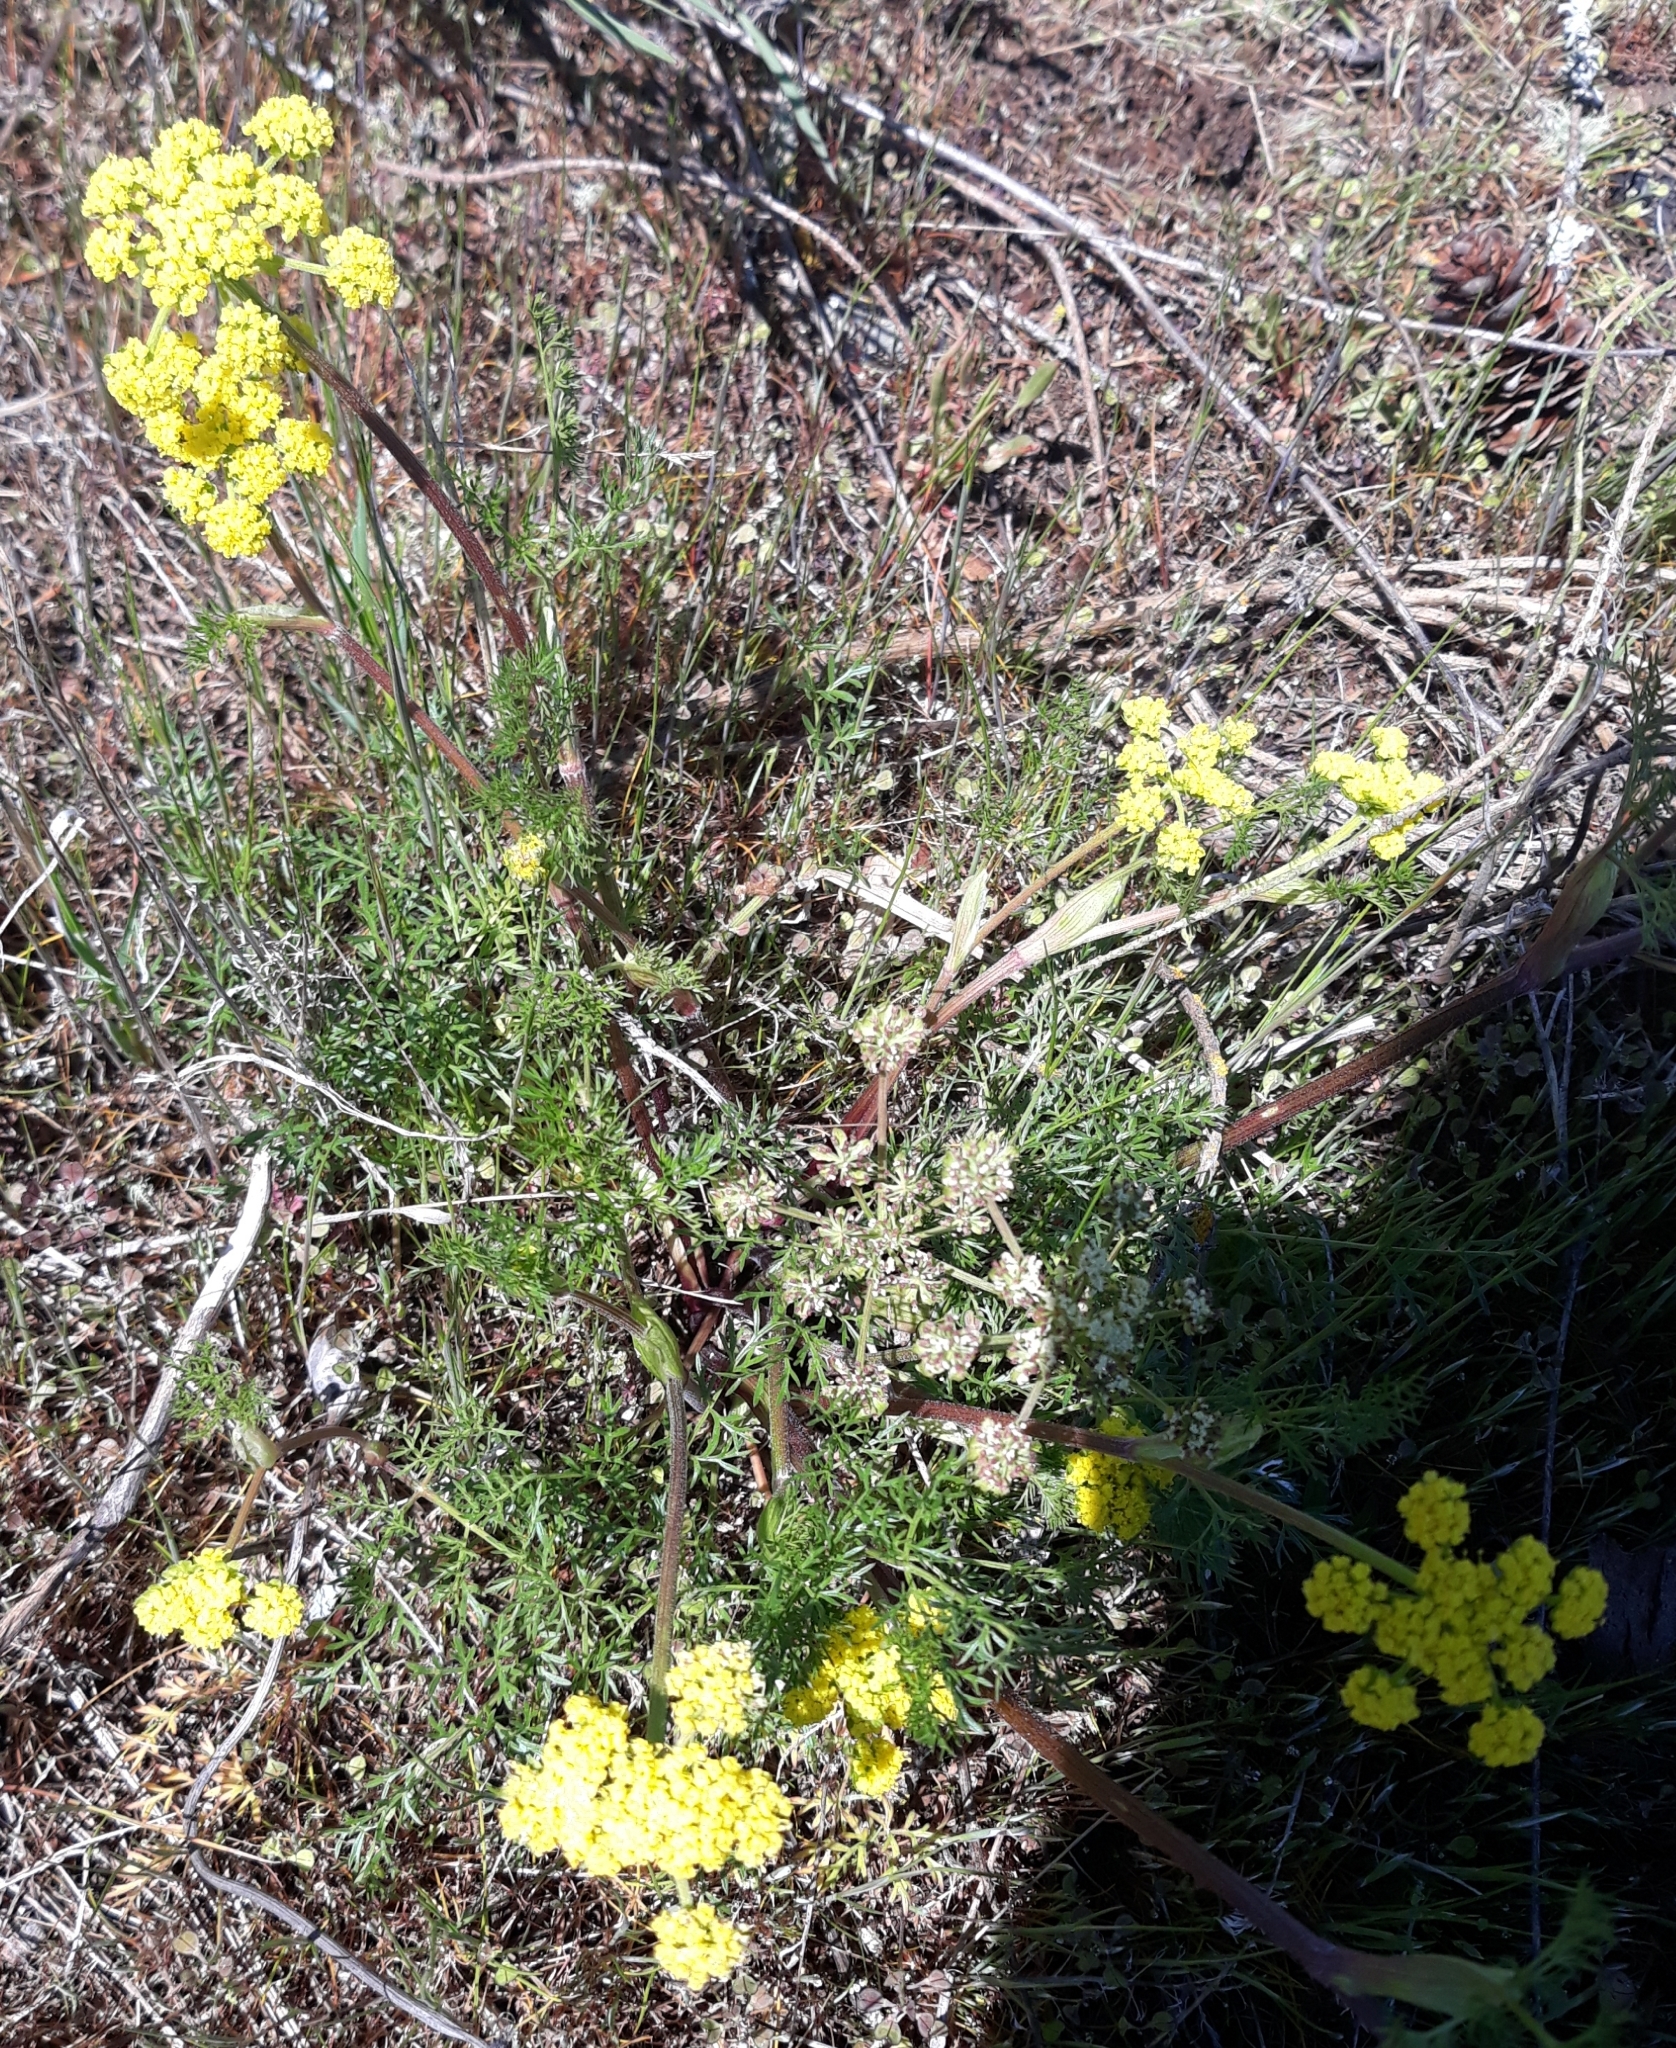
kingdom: Plantae
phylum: Tracheophyta
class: Magnoliopsida
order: Apiales
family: Apiaceae
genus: Lomatium
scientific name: Lomatium utriculatum
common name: Fine-leaf desert-parsley
